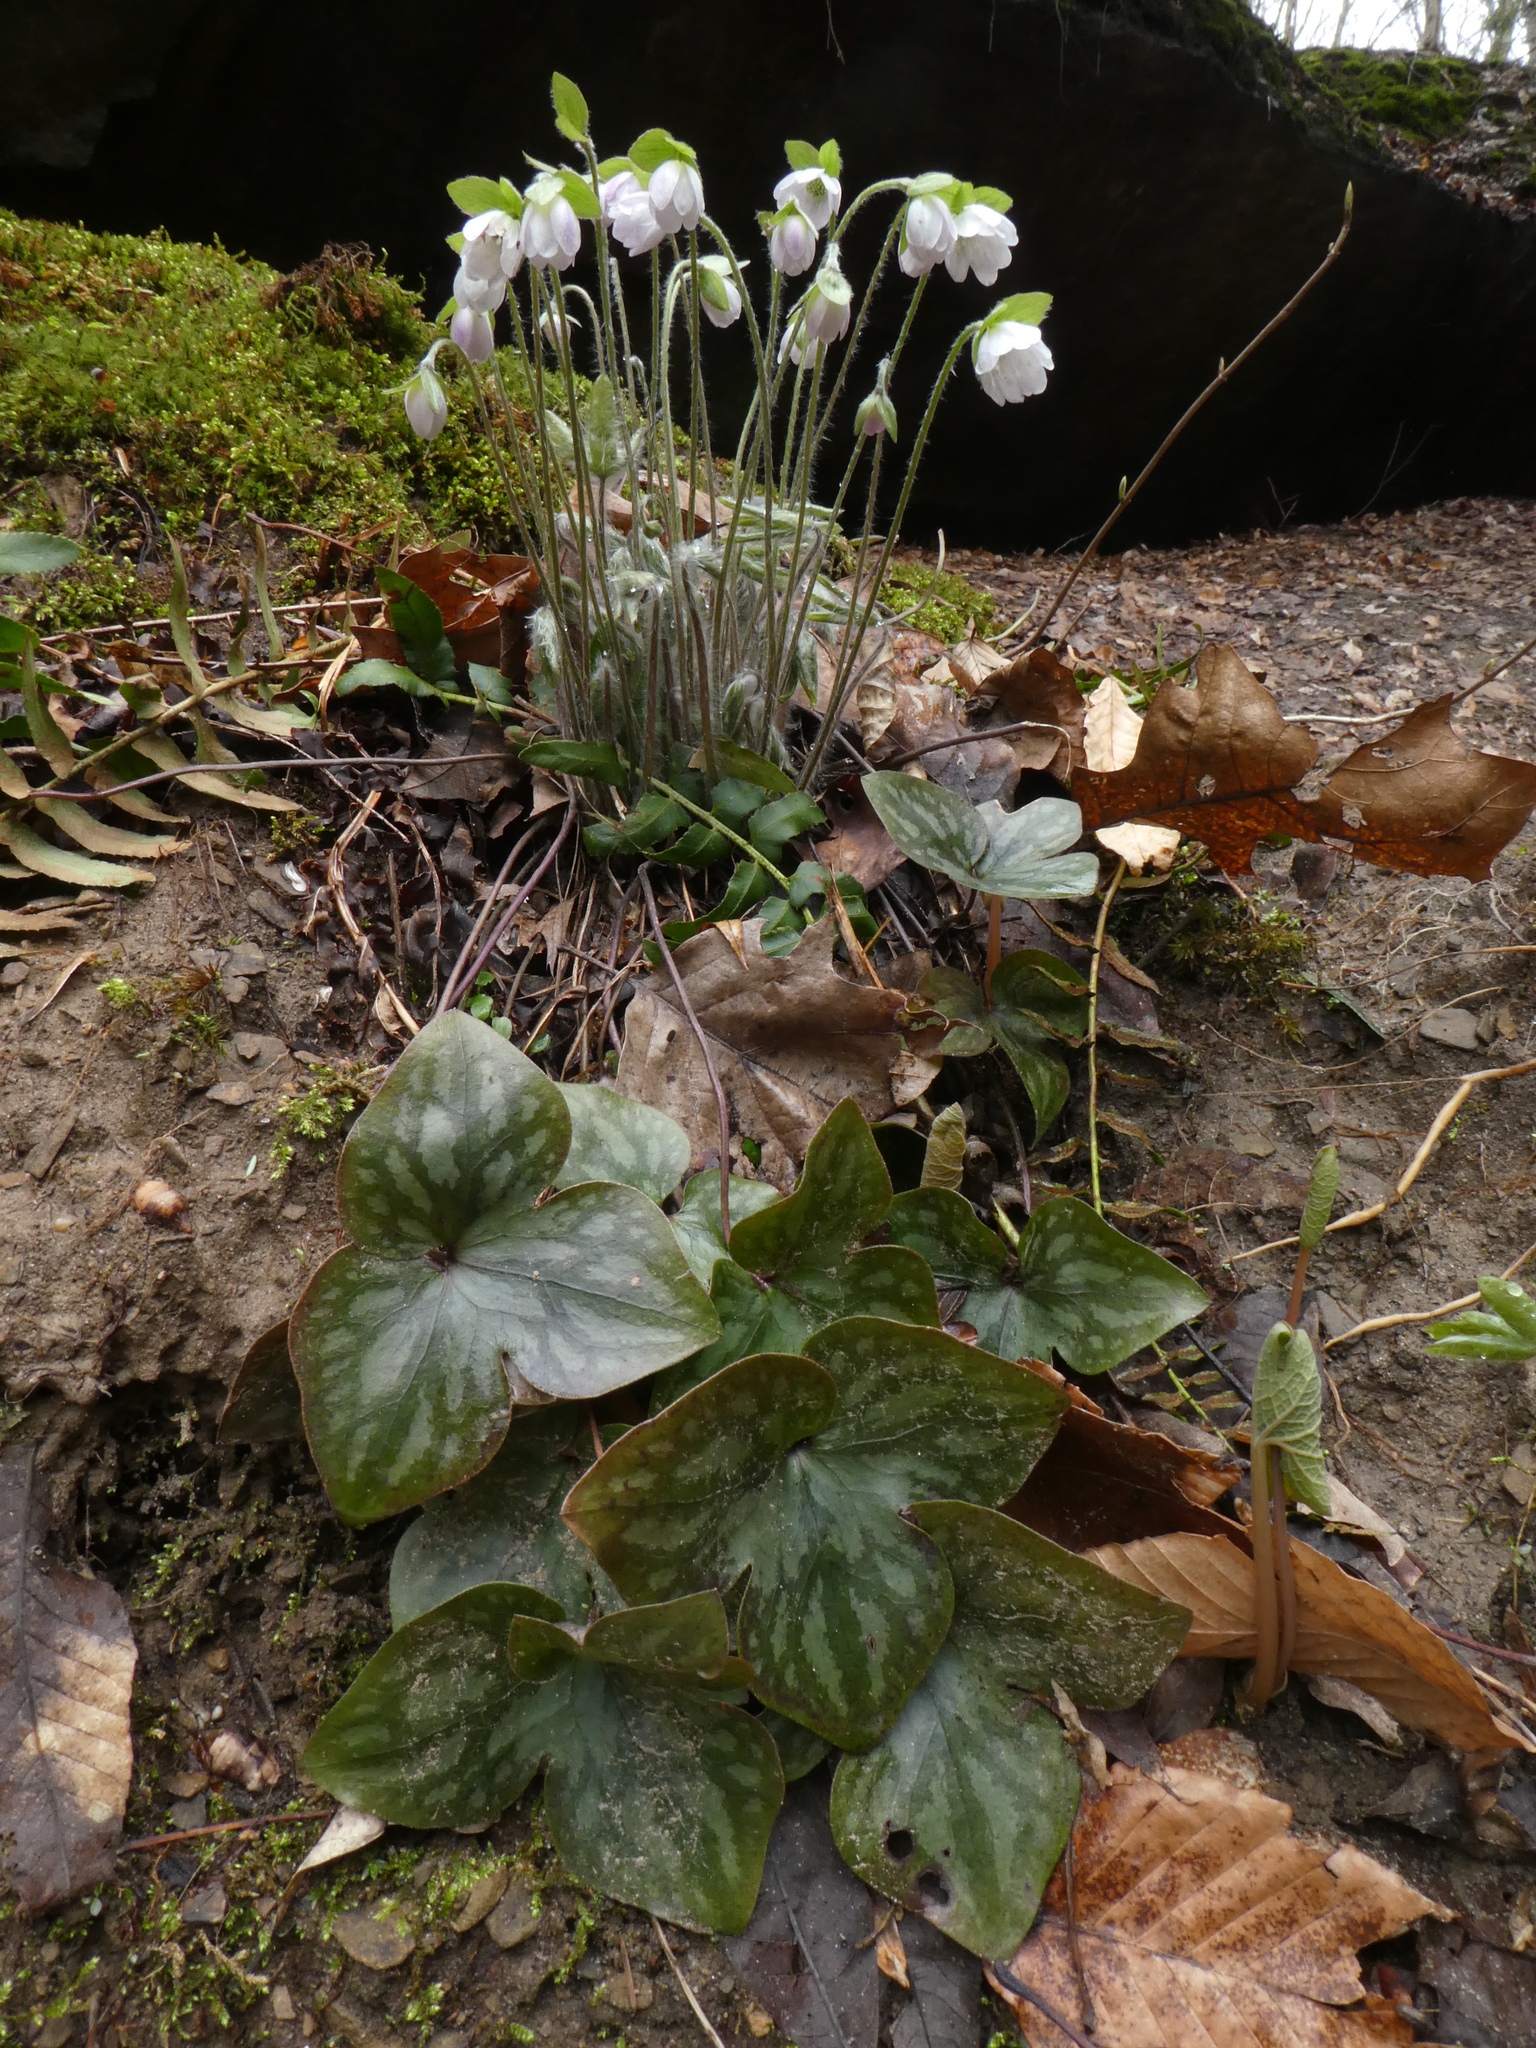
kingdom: Plantae
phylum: Tracheophyta
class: Magnoliopsida
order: Ranunculales
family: Ranunculaceae
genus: Hepatica
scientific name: Hepatica acutiloba
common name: Sharp-lobed hepatica
